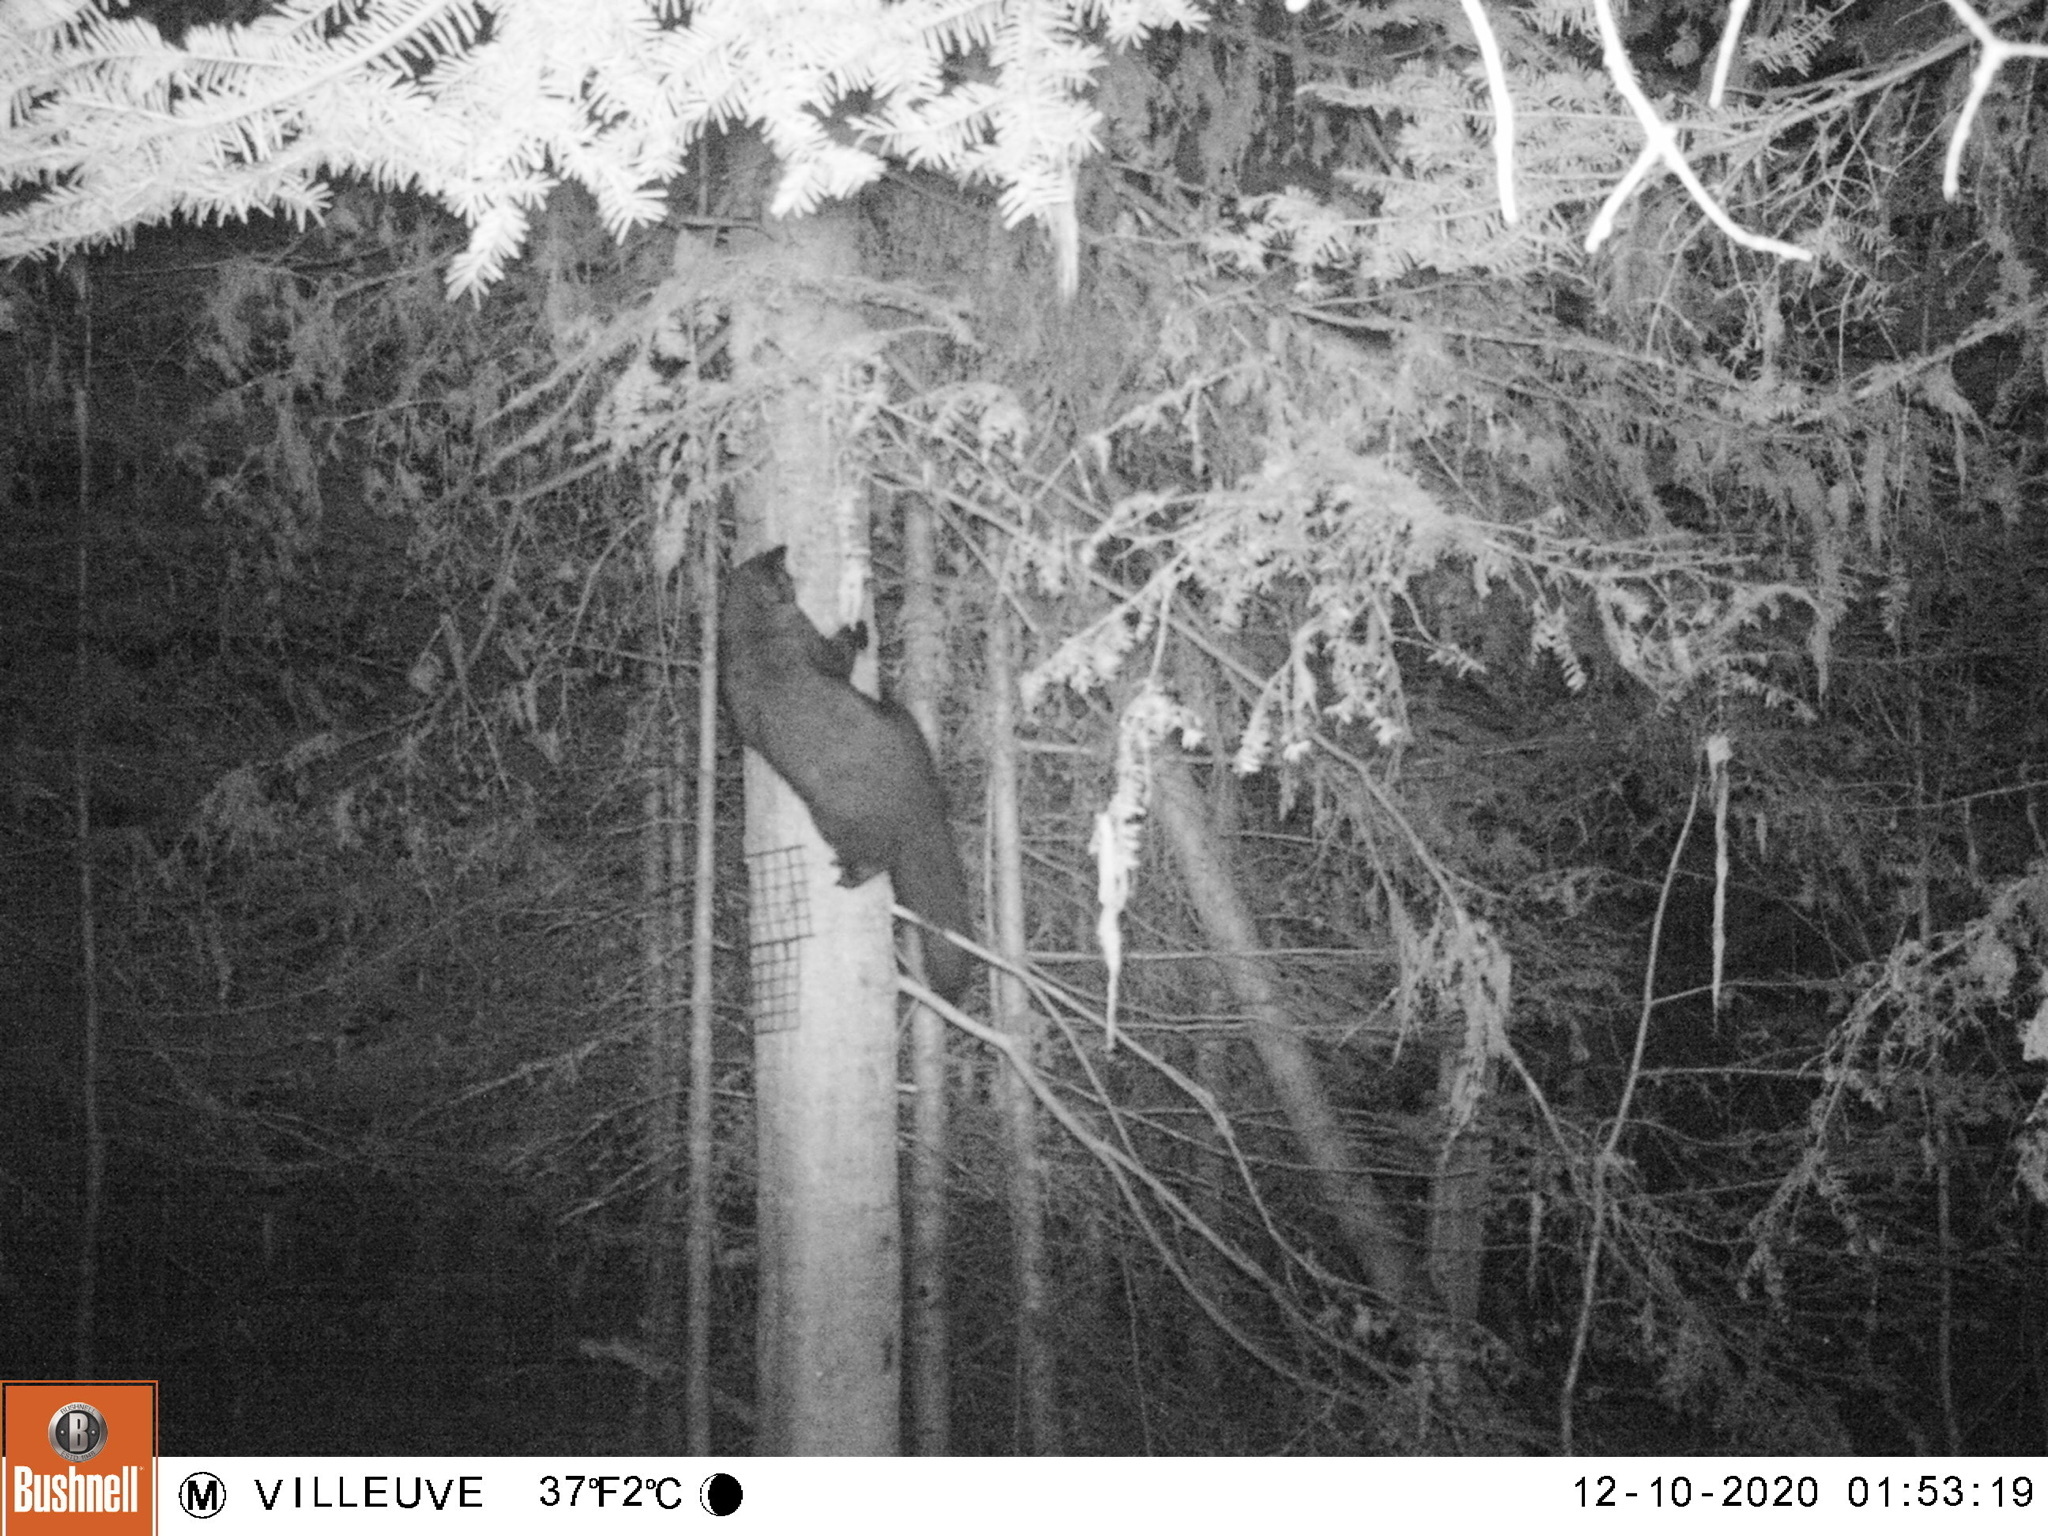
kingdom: Animalia
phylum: Chordata
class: Mammalia
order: Carnivora
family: Mustelidae
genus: Pekania
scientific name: Pekania pennanti
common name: Fisher
